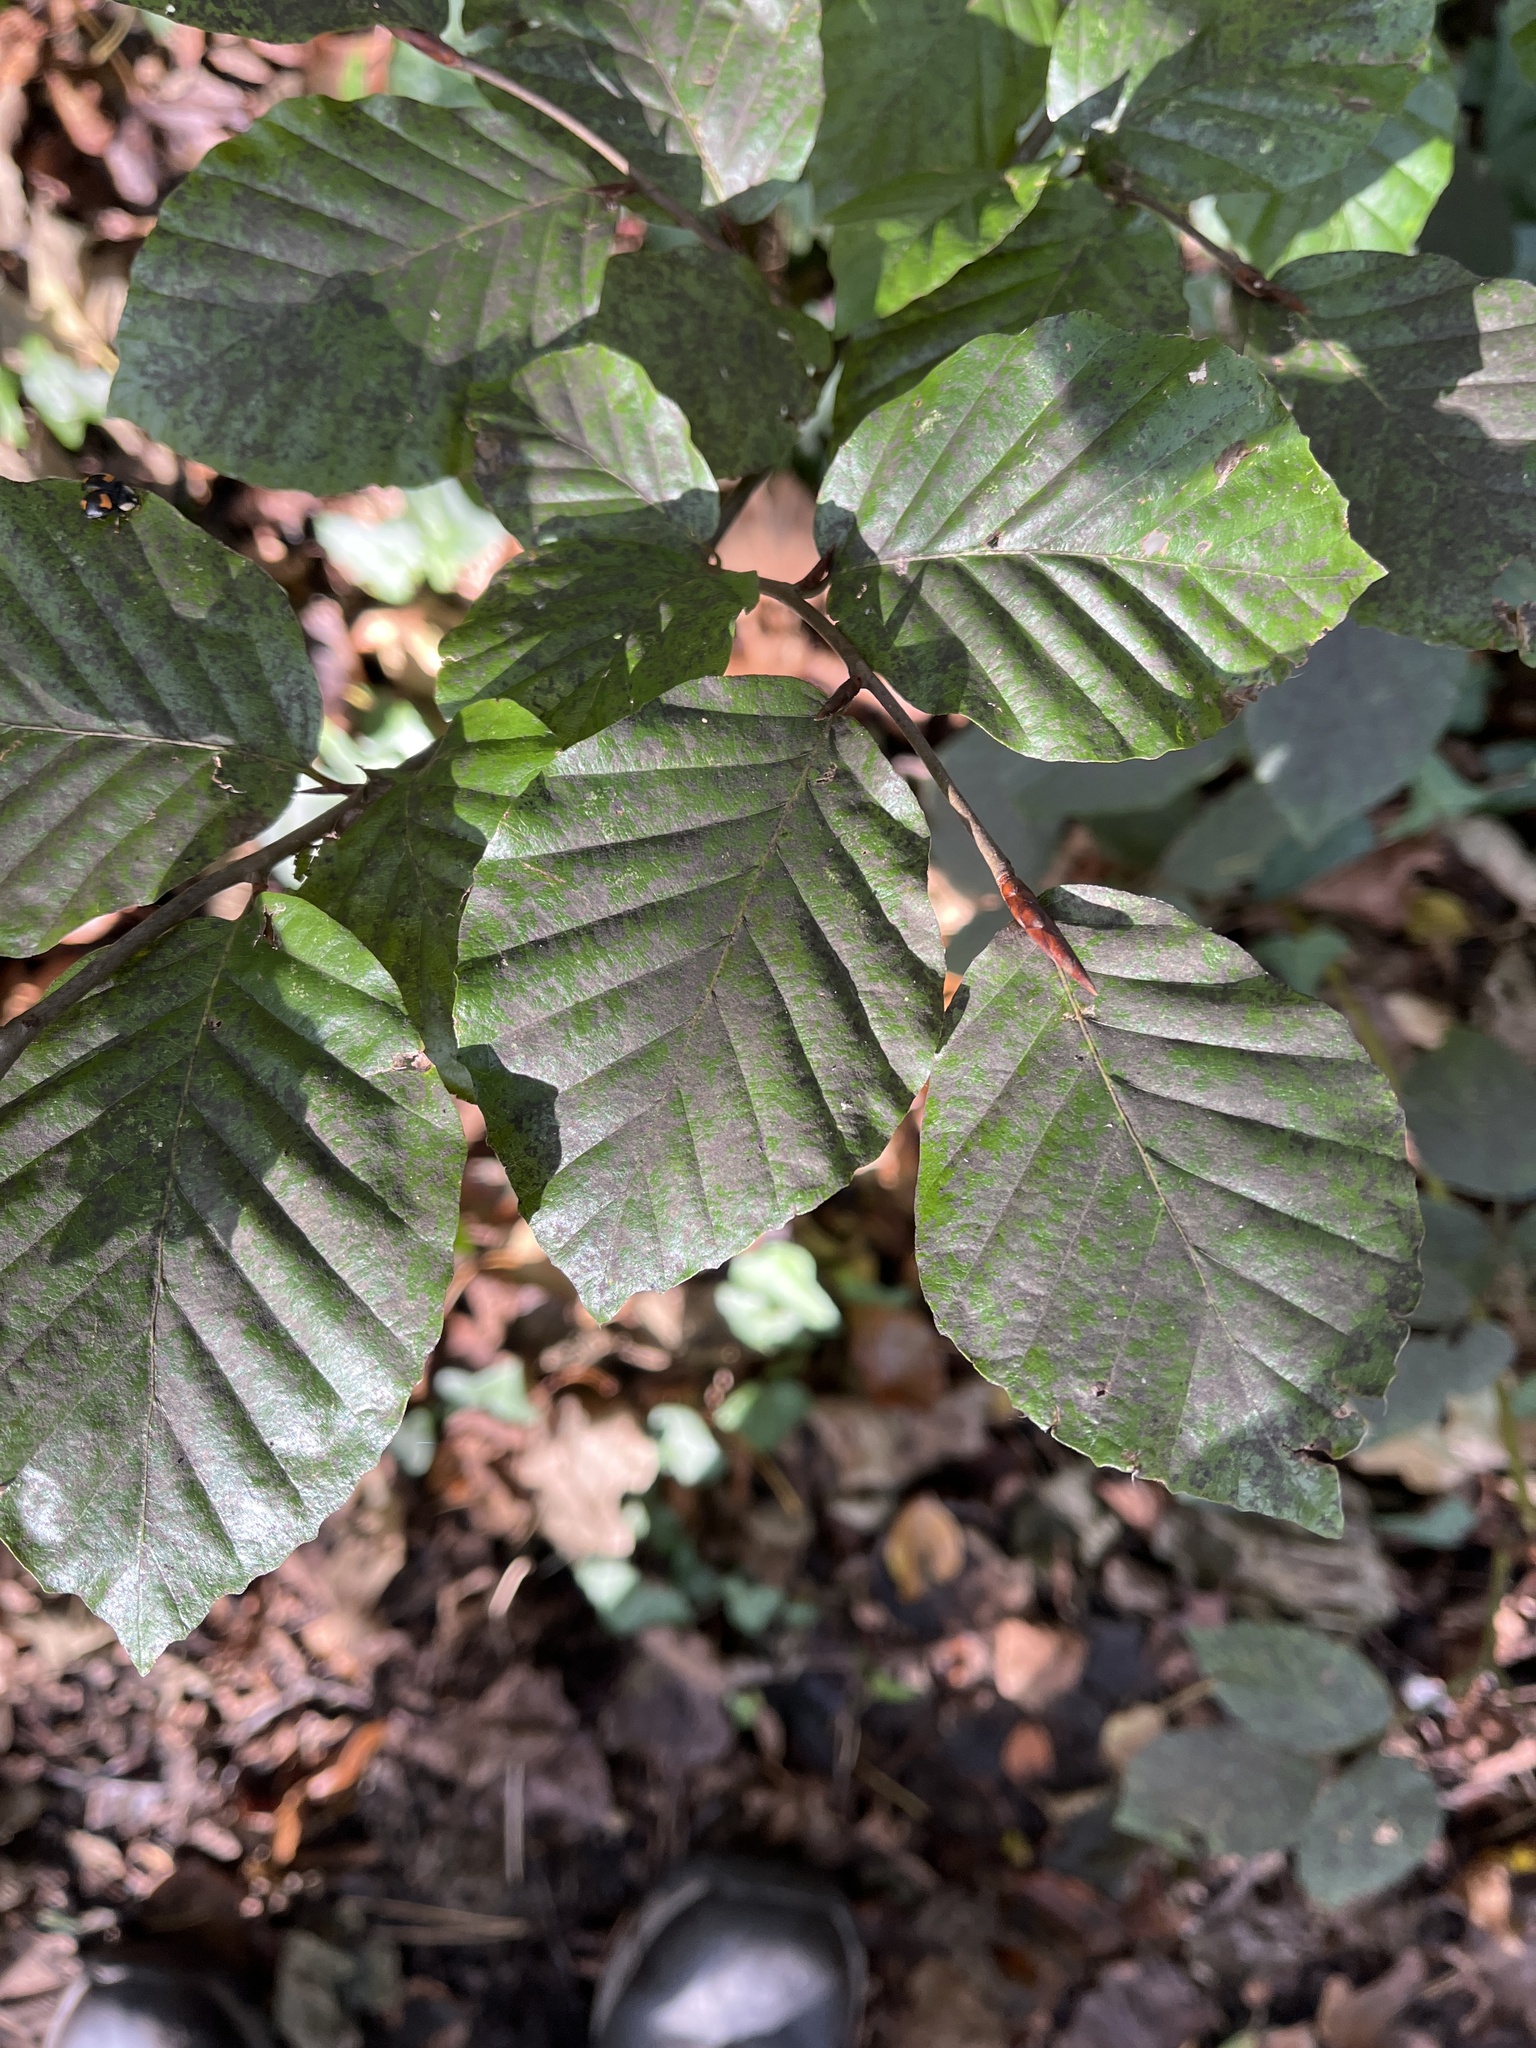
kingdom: Plantae
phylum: Tracheophyta
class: Magnoliopsida
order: Fagales
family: Fagaceae
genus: Fagus
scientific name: Fagus sylvatica
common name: Beech
